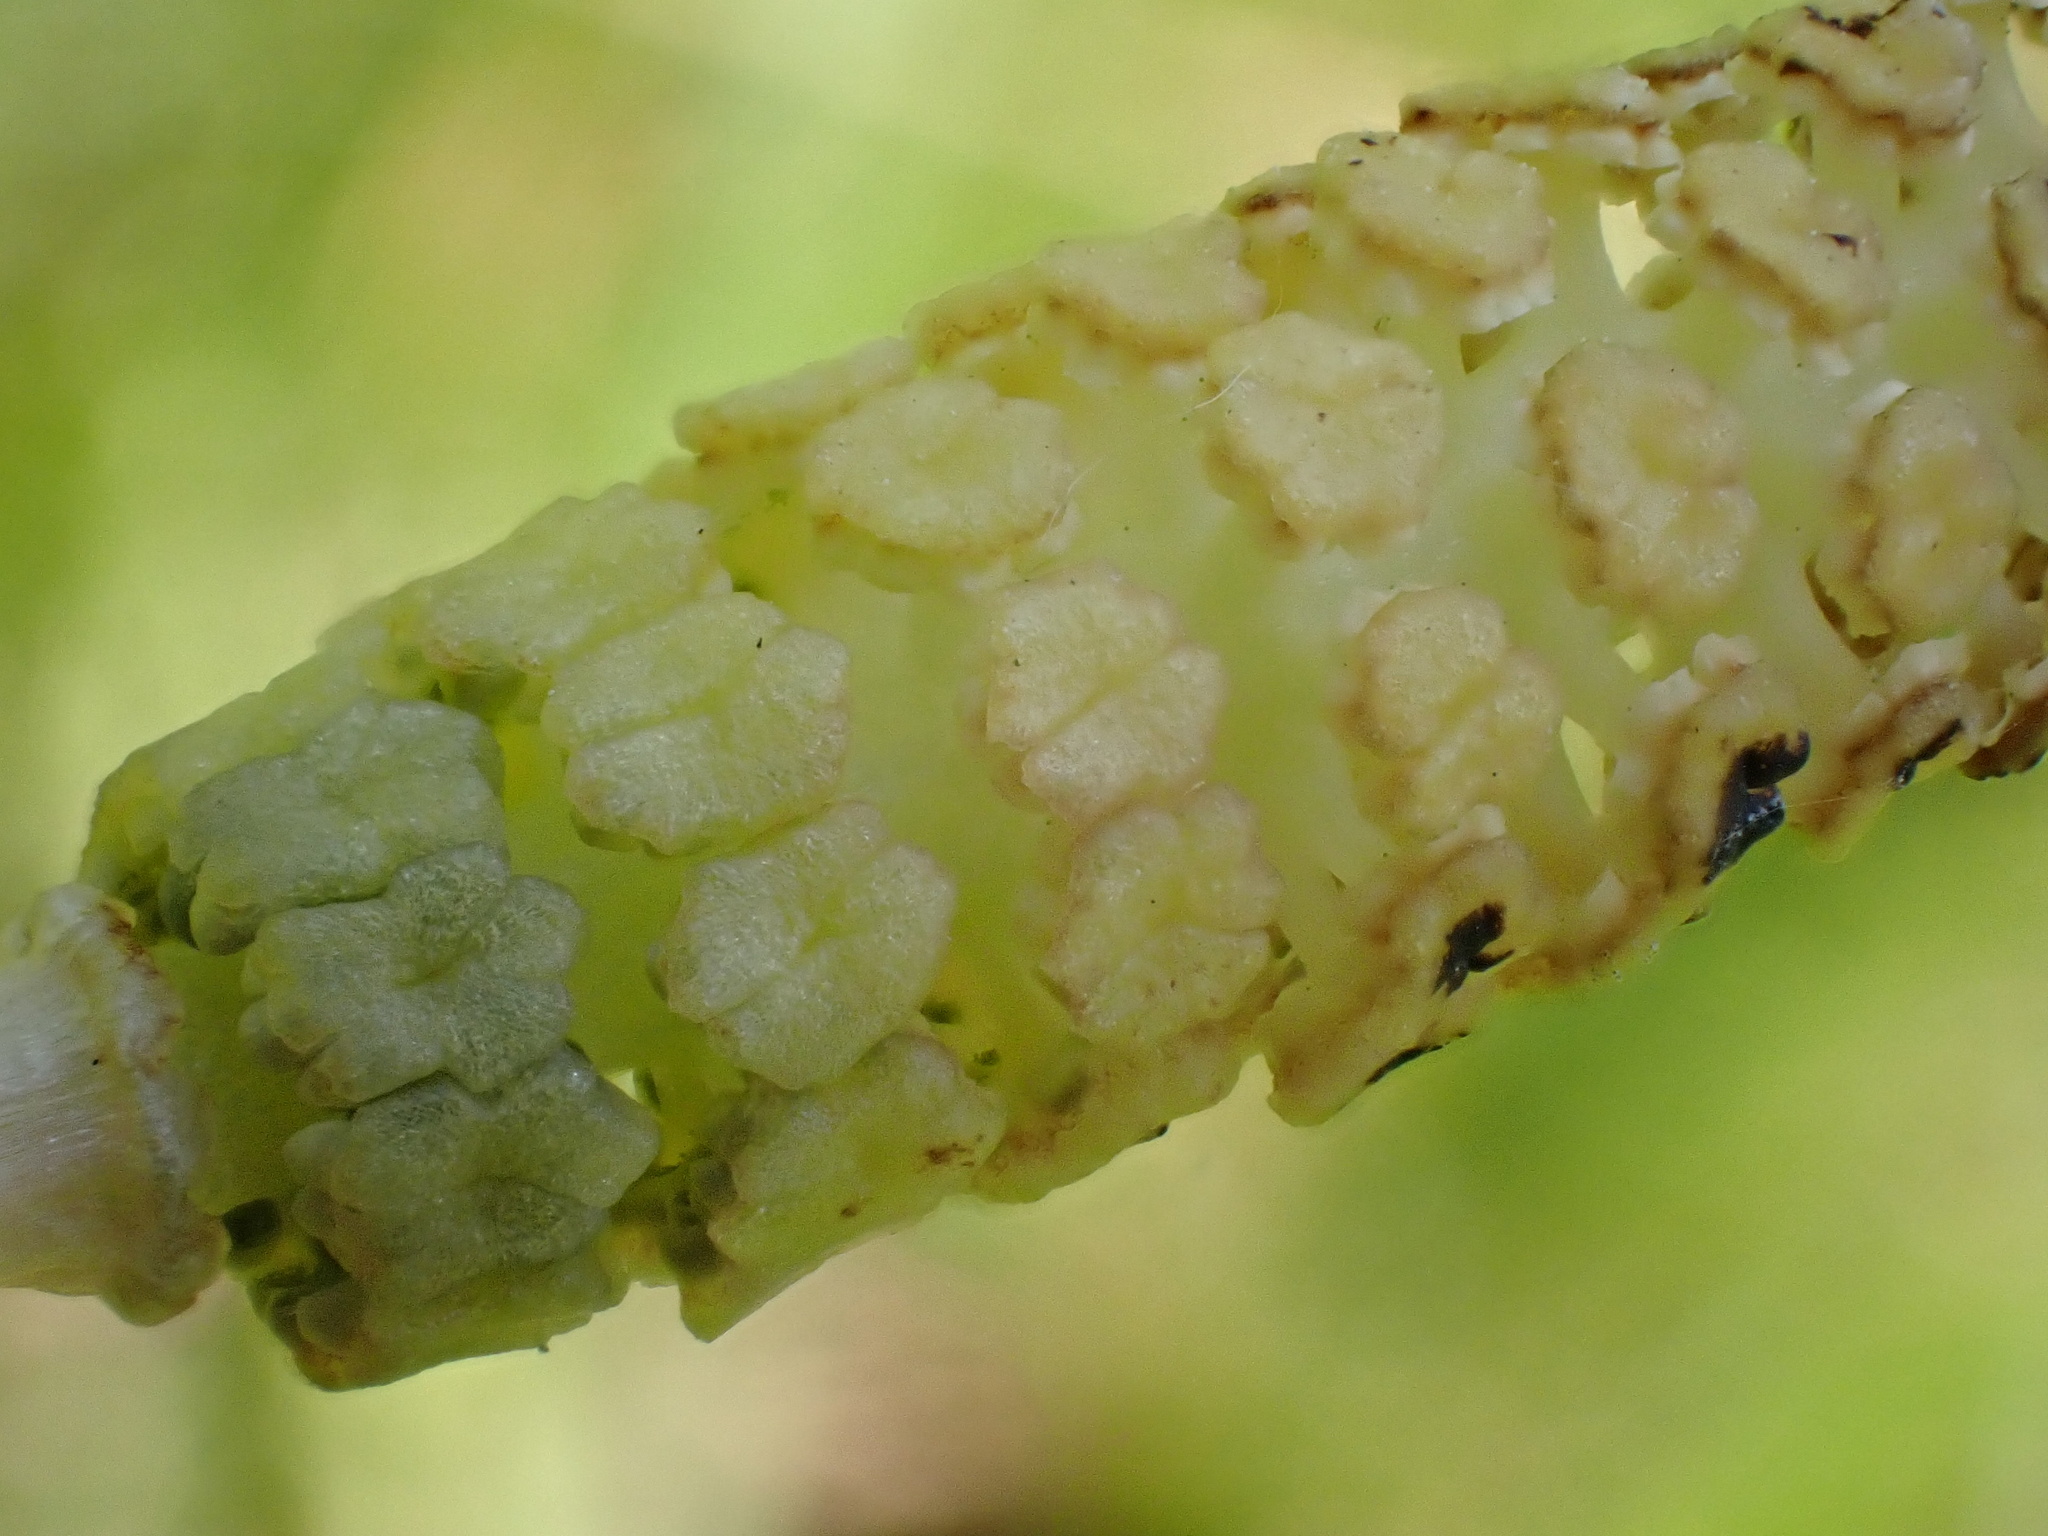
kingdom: Plantae
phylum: Tracheophyta
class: Polypodiopsida
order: Equisetales
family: Equisetaceae
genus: Equisetum
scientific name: Equisetum palustre
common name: Marsh horsetail
